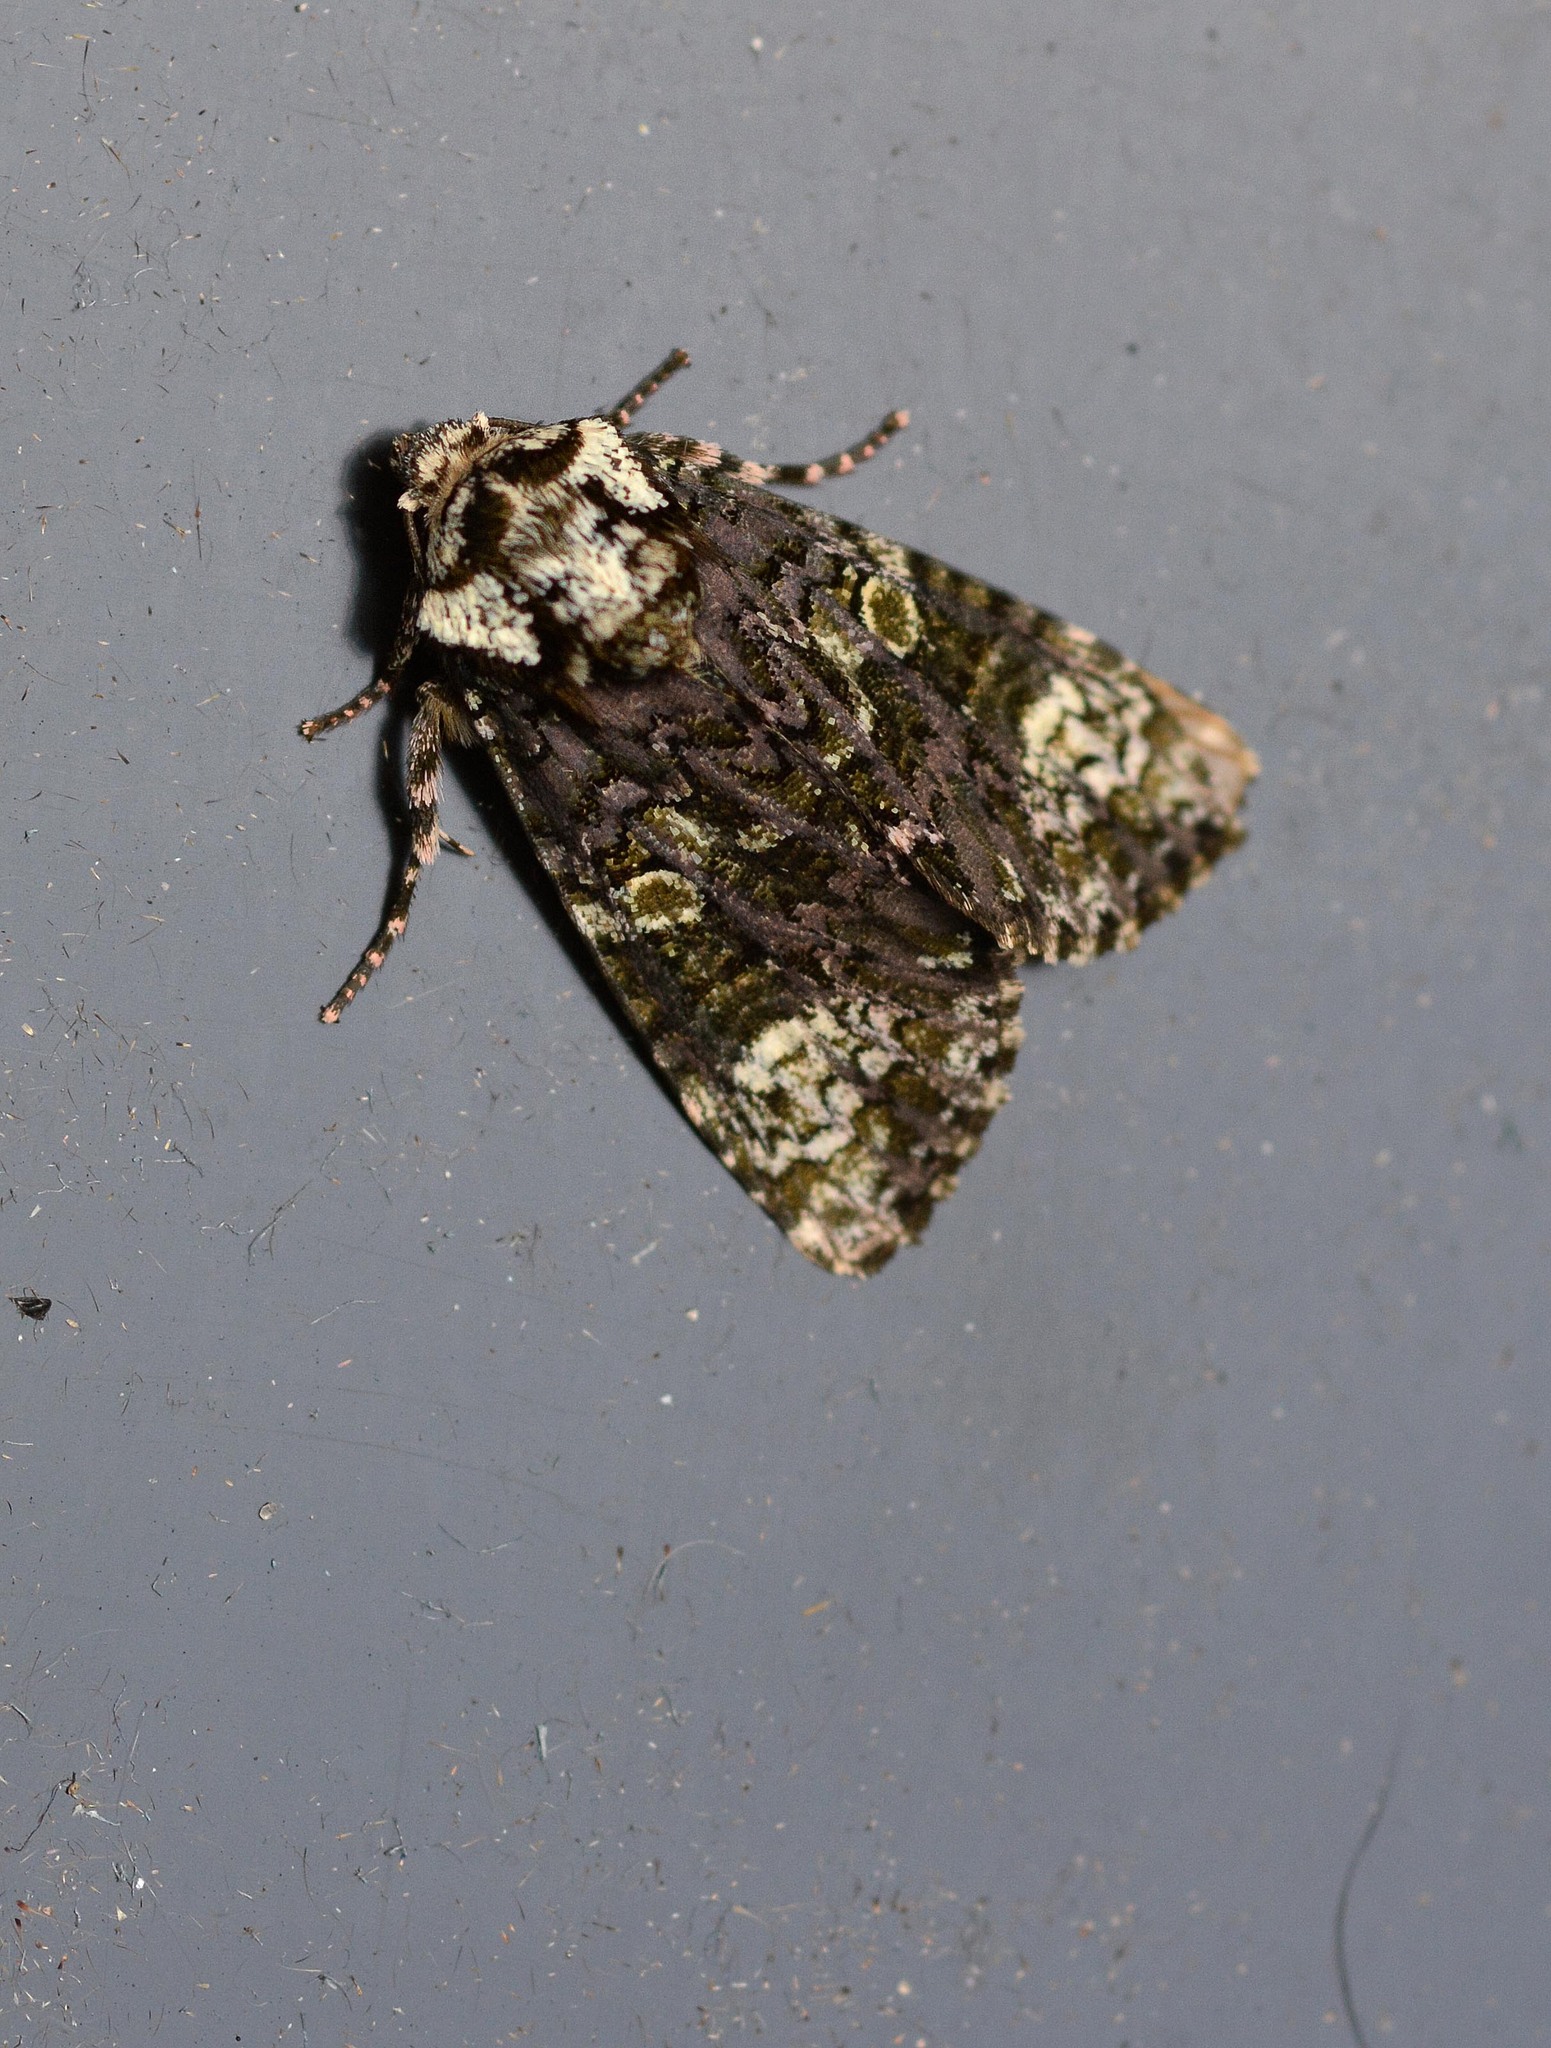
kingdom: Animalia
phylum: Arthropoda
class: Insecta
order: Lepidoptera
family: Noctuidae
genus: Craniophora
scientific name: Craniophora ligustri
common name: Coronet
